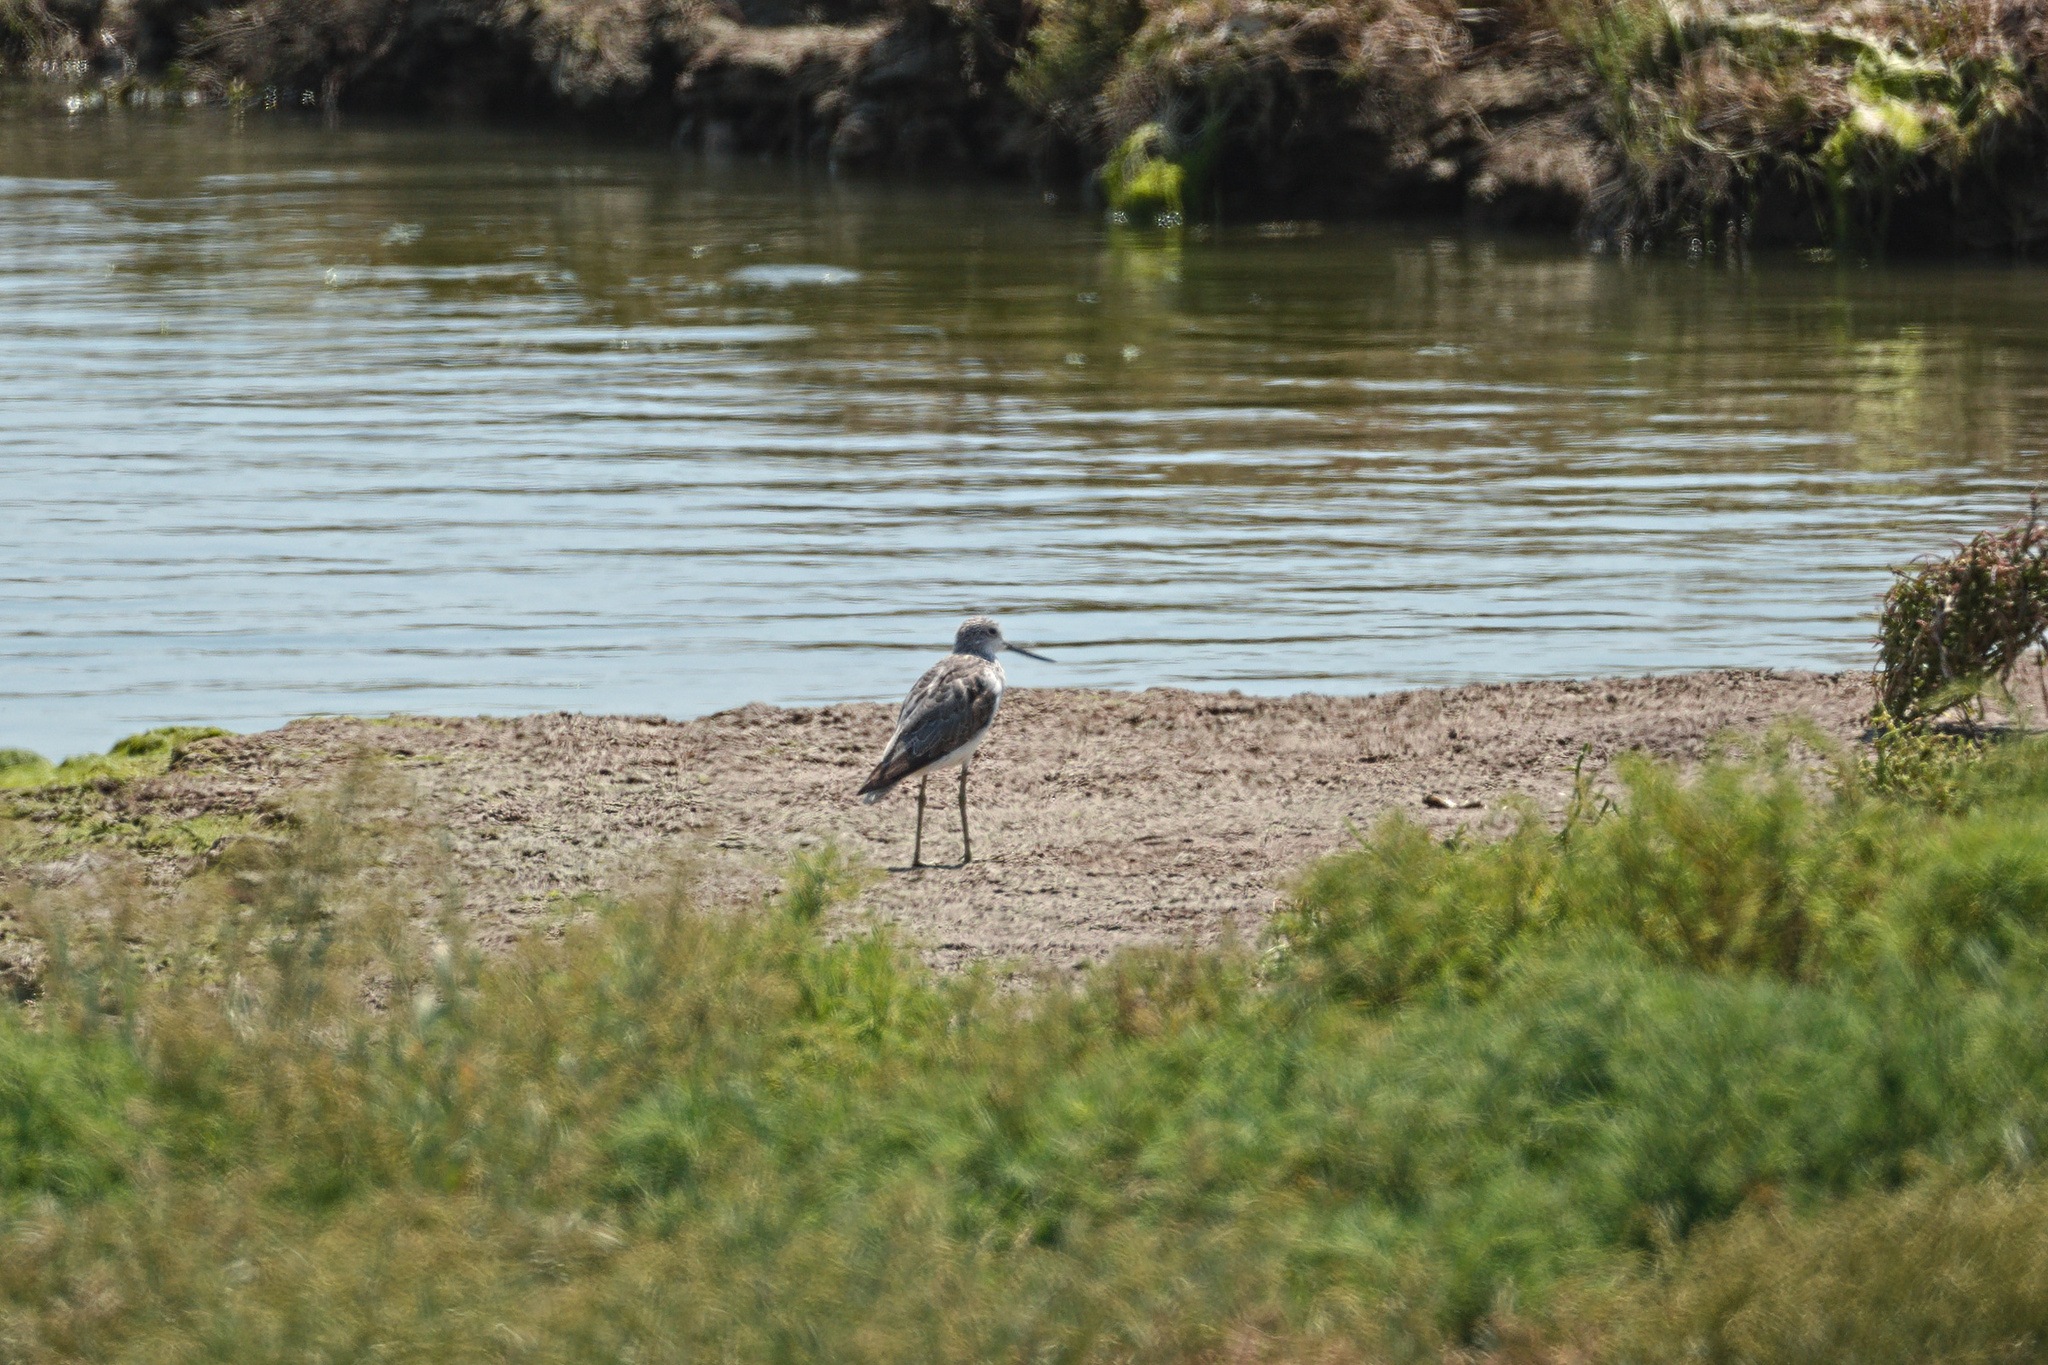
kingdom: Animalia
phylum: Chordata
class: Aves
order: Charadriiformes
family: Scolopacidae
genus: Tringa
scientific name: Tringa nebularia
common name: Common greenshank
